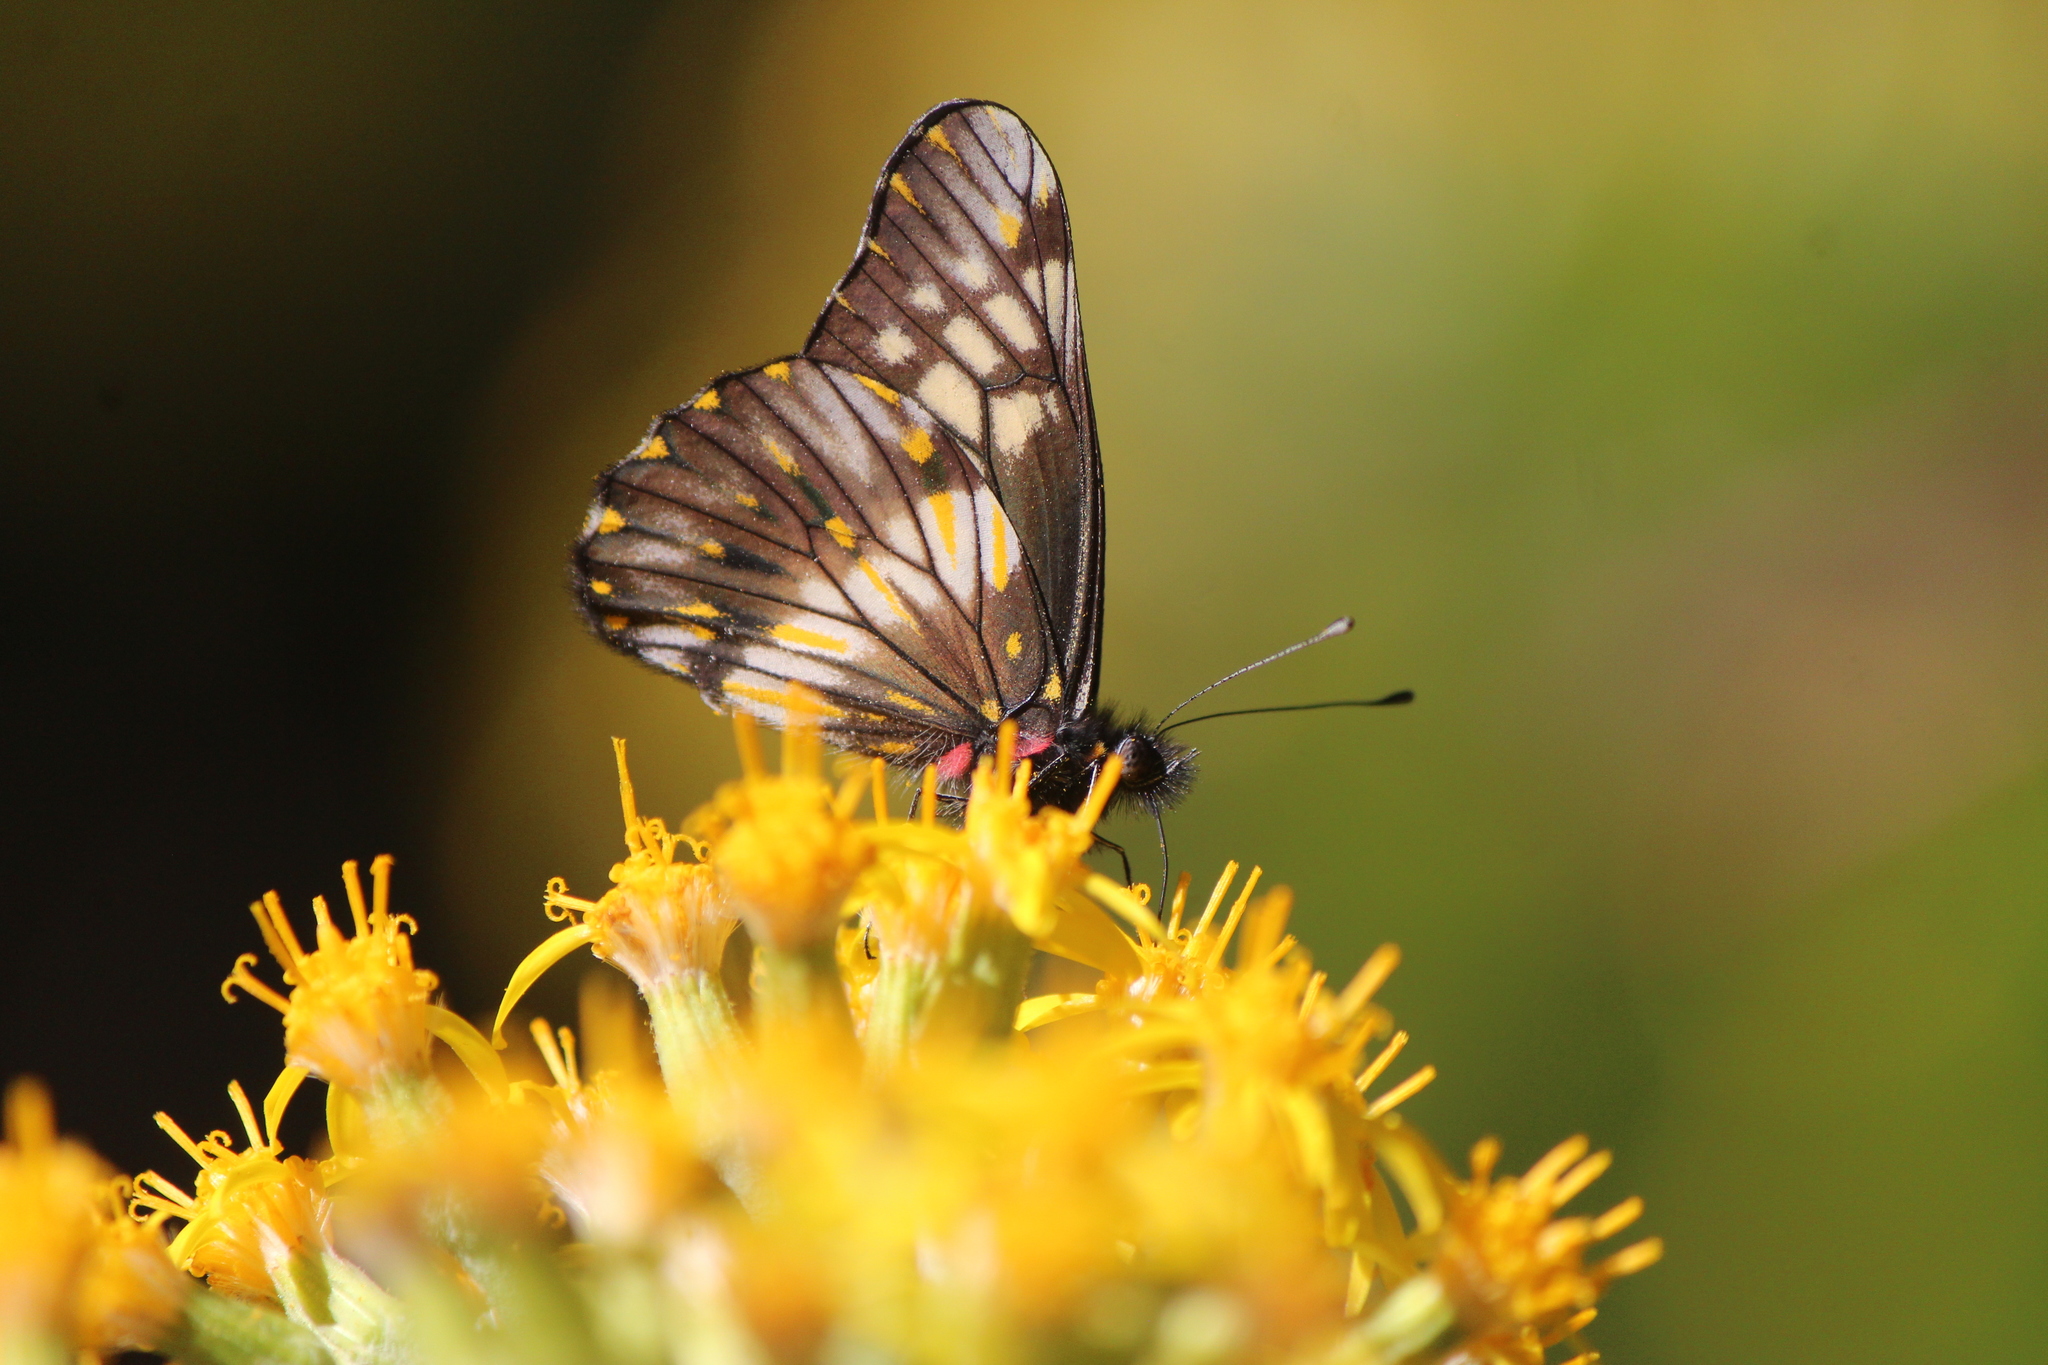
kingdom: Animalia
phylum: Arthropoda
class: Insecta
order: Lepidoptera
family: Pieridae
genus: Archonias
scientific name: Archonias nimbice
